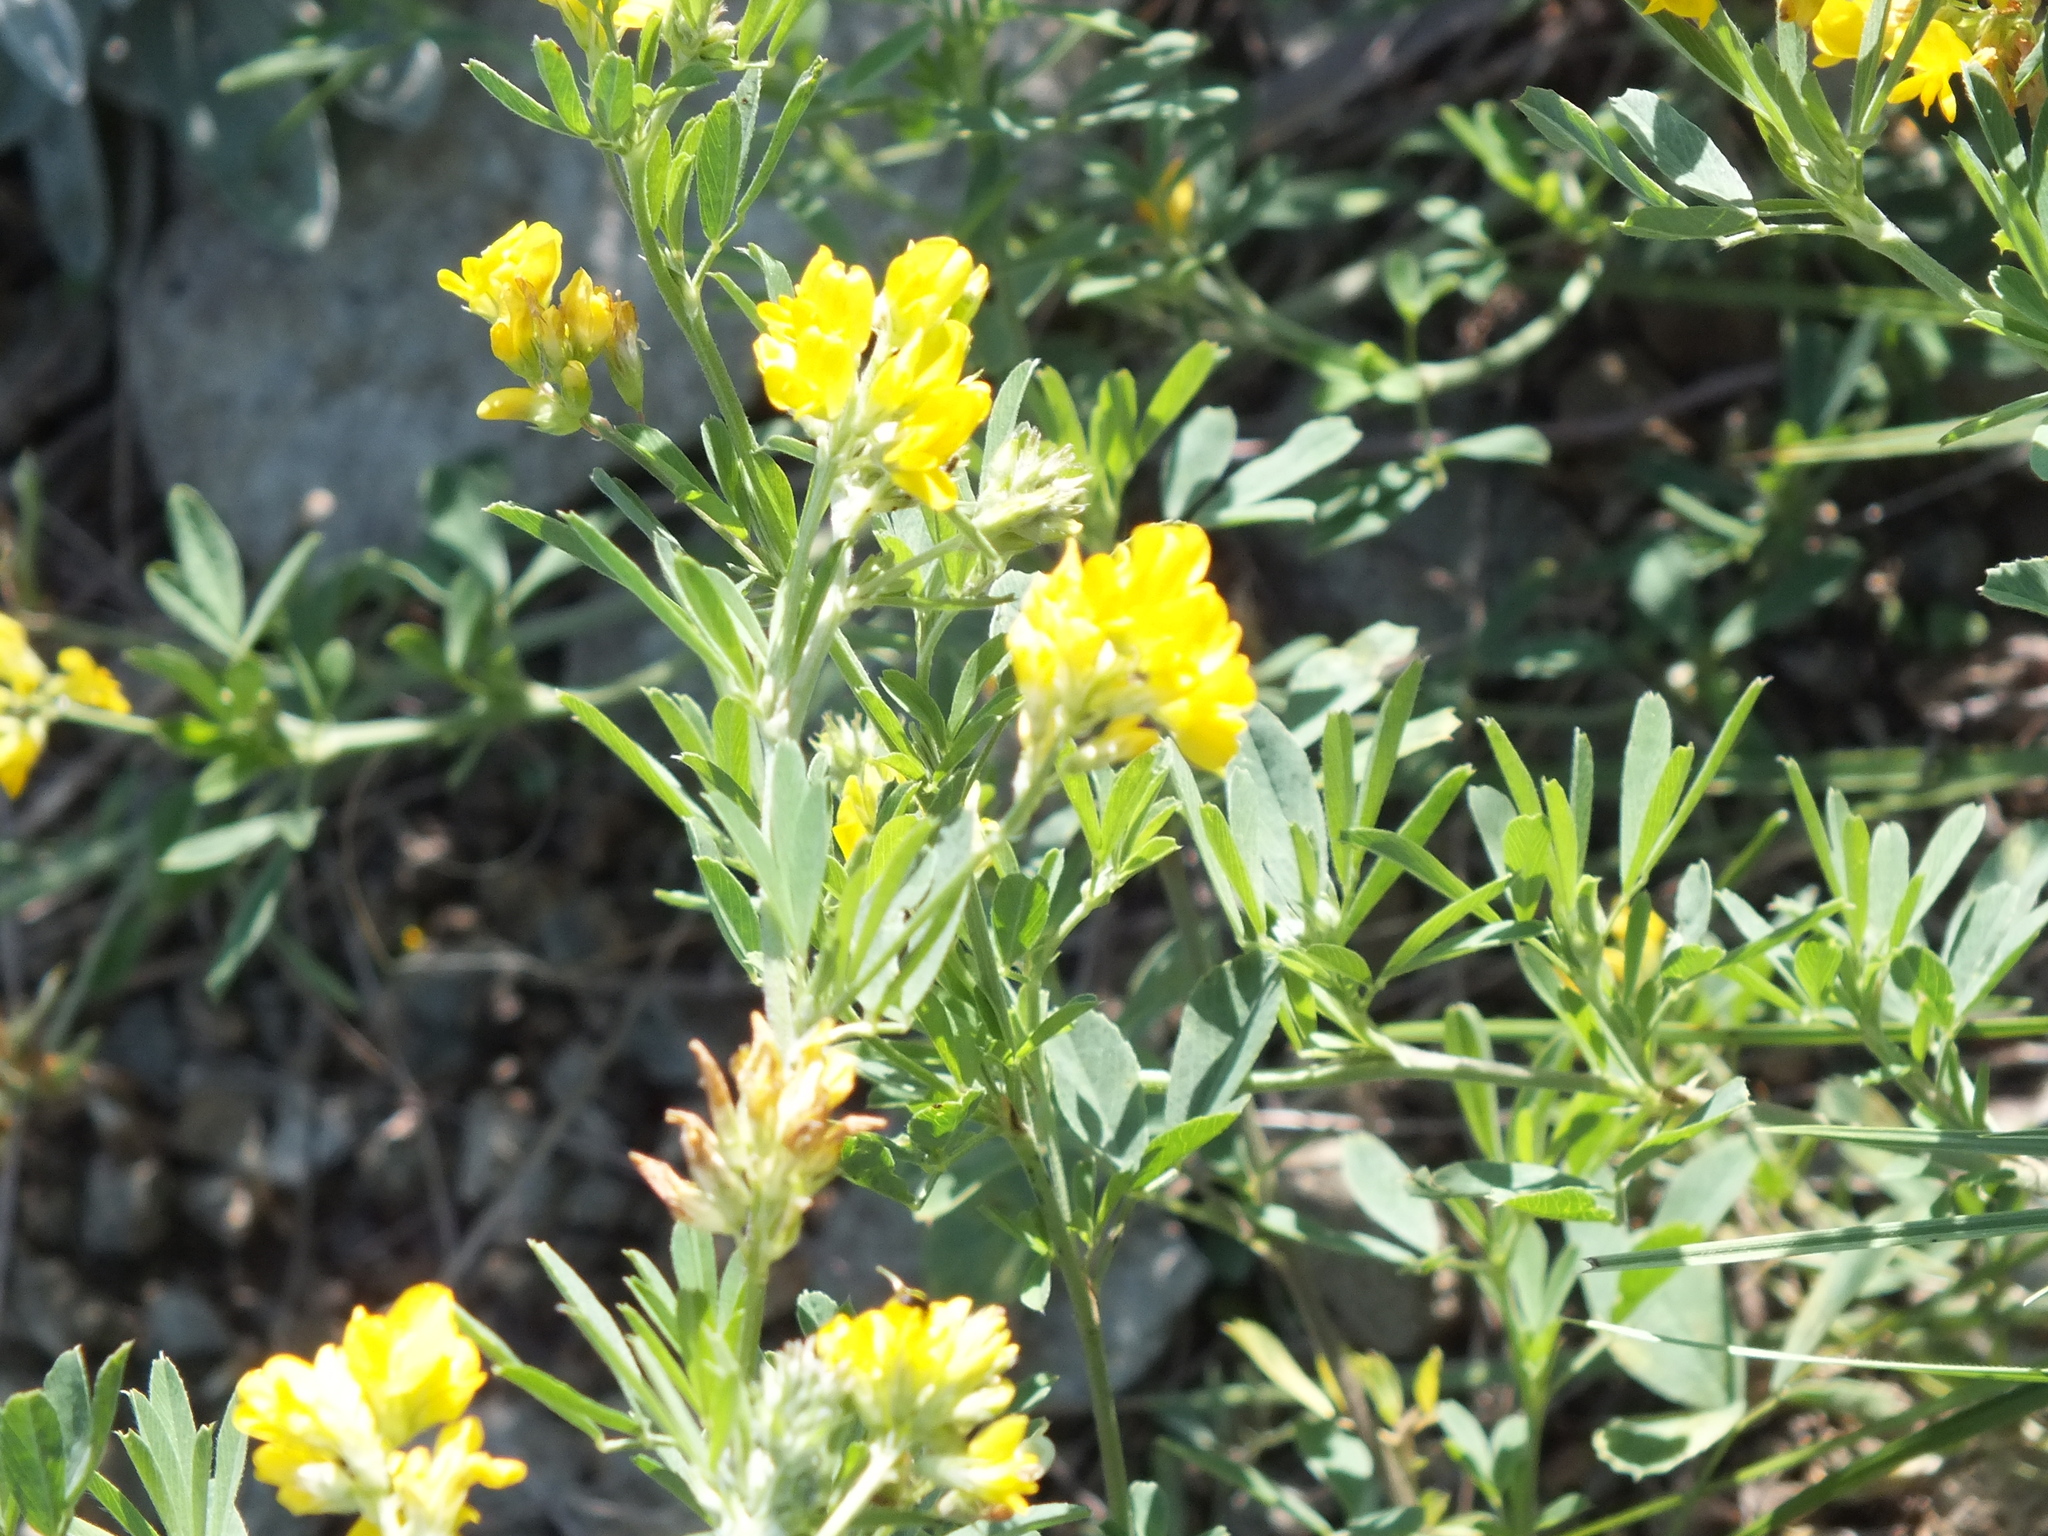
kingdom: Plantae
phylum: Tracheophyta
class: Magnoliopsida
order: Fabales
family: Fabaceae
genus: Medicago
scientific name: Medicago falcata
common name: Sickle medick
